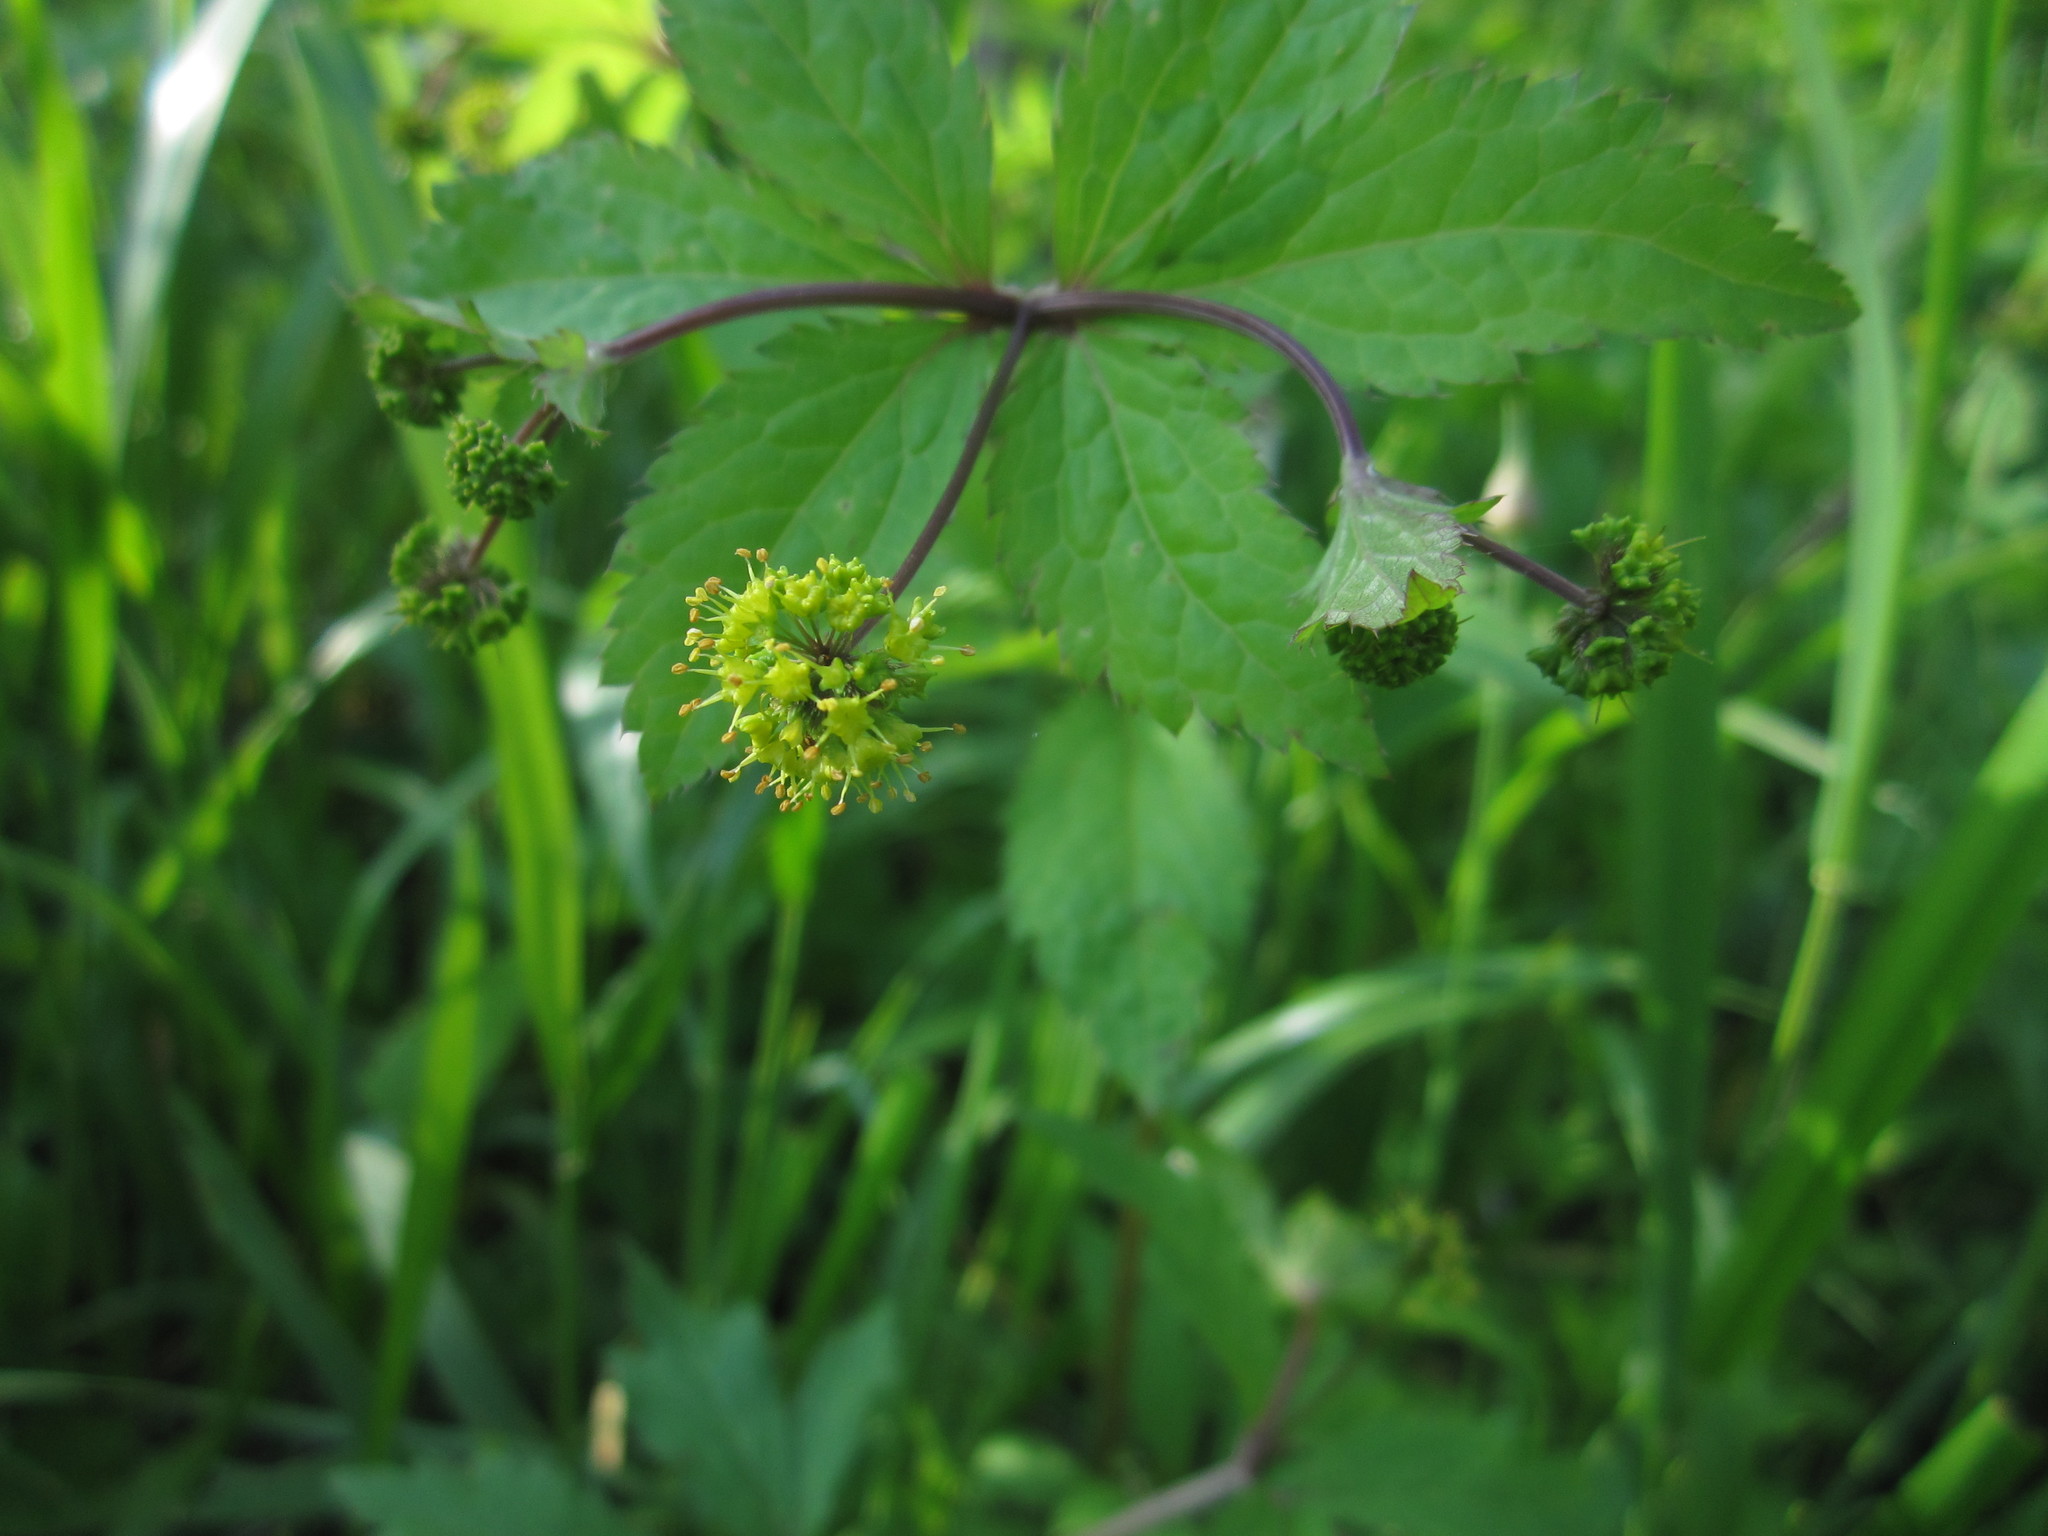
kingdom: Plantae
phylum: Tracheophyta
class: Magnoliopsida
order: Apiales
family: Apiaceae
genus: Sanicula
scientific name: Sanicula odorata
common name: Cluster sanicle
